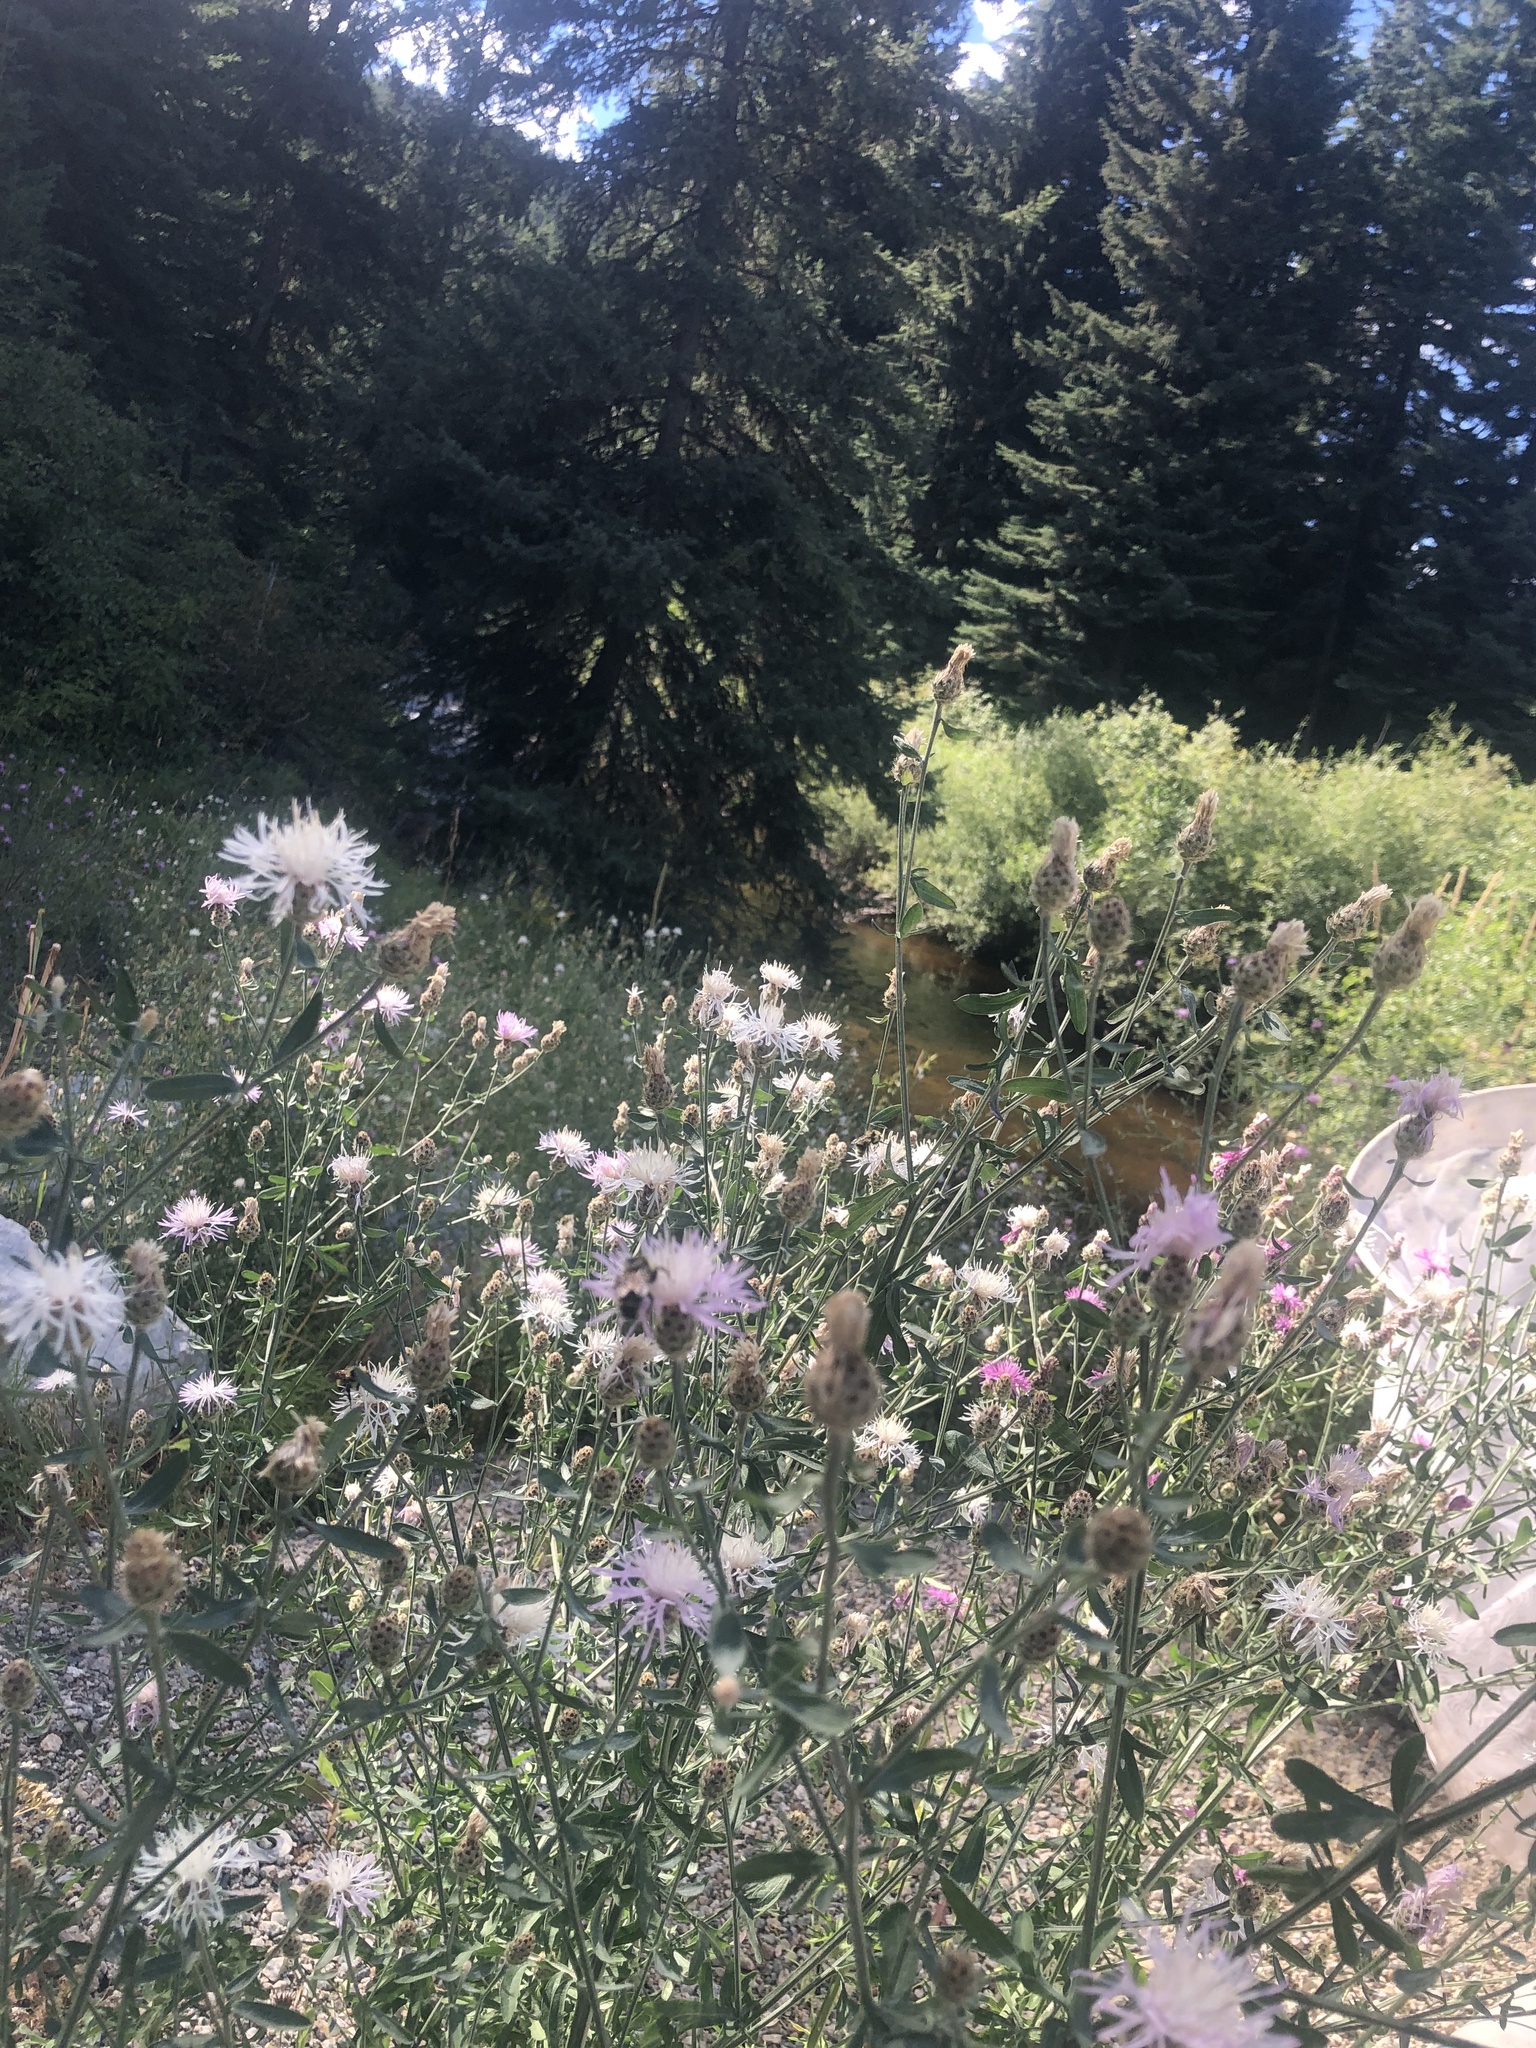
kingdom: Plantae
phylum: Tracheophyta
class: Magnoliopsida
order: Asterales
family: Asteraceae
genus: Centaurea
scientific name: Centaurea stoebe
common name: Spotted knapweed
